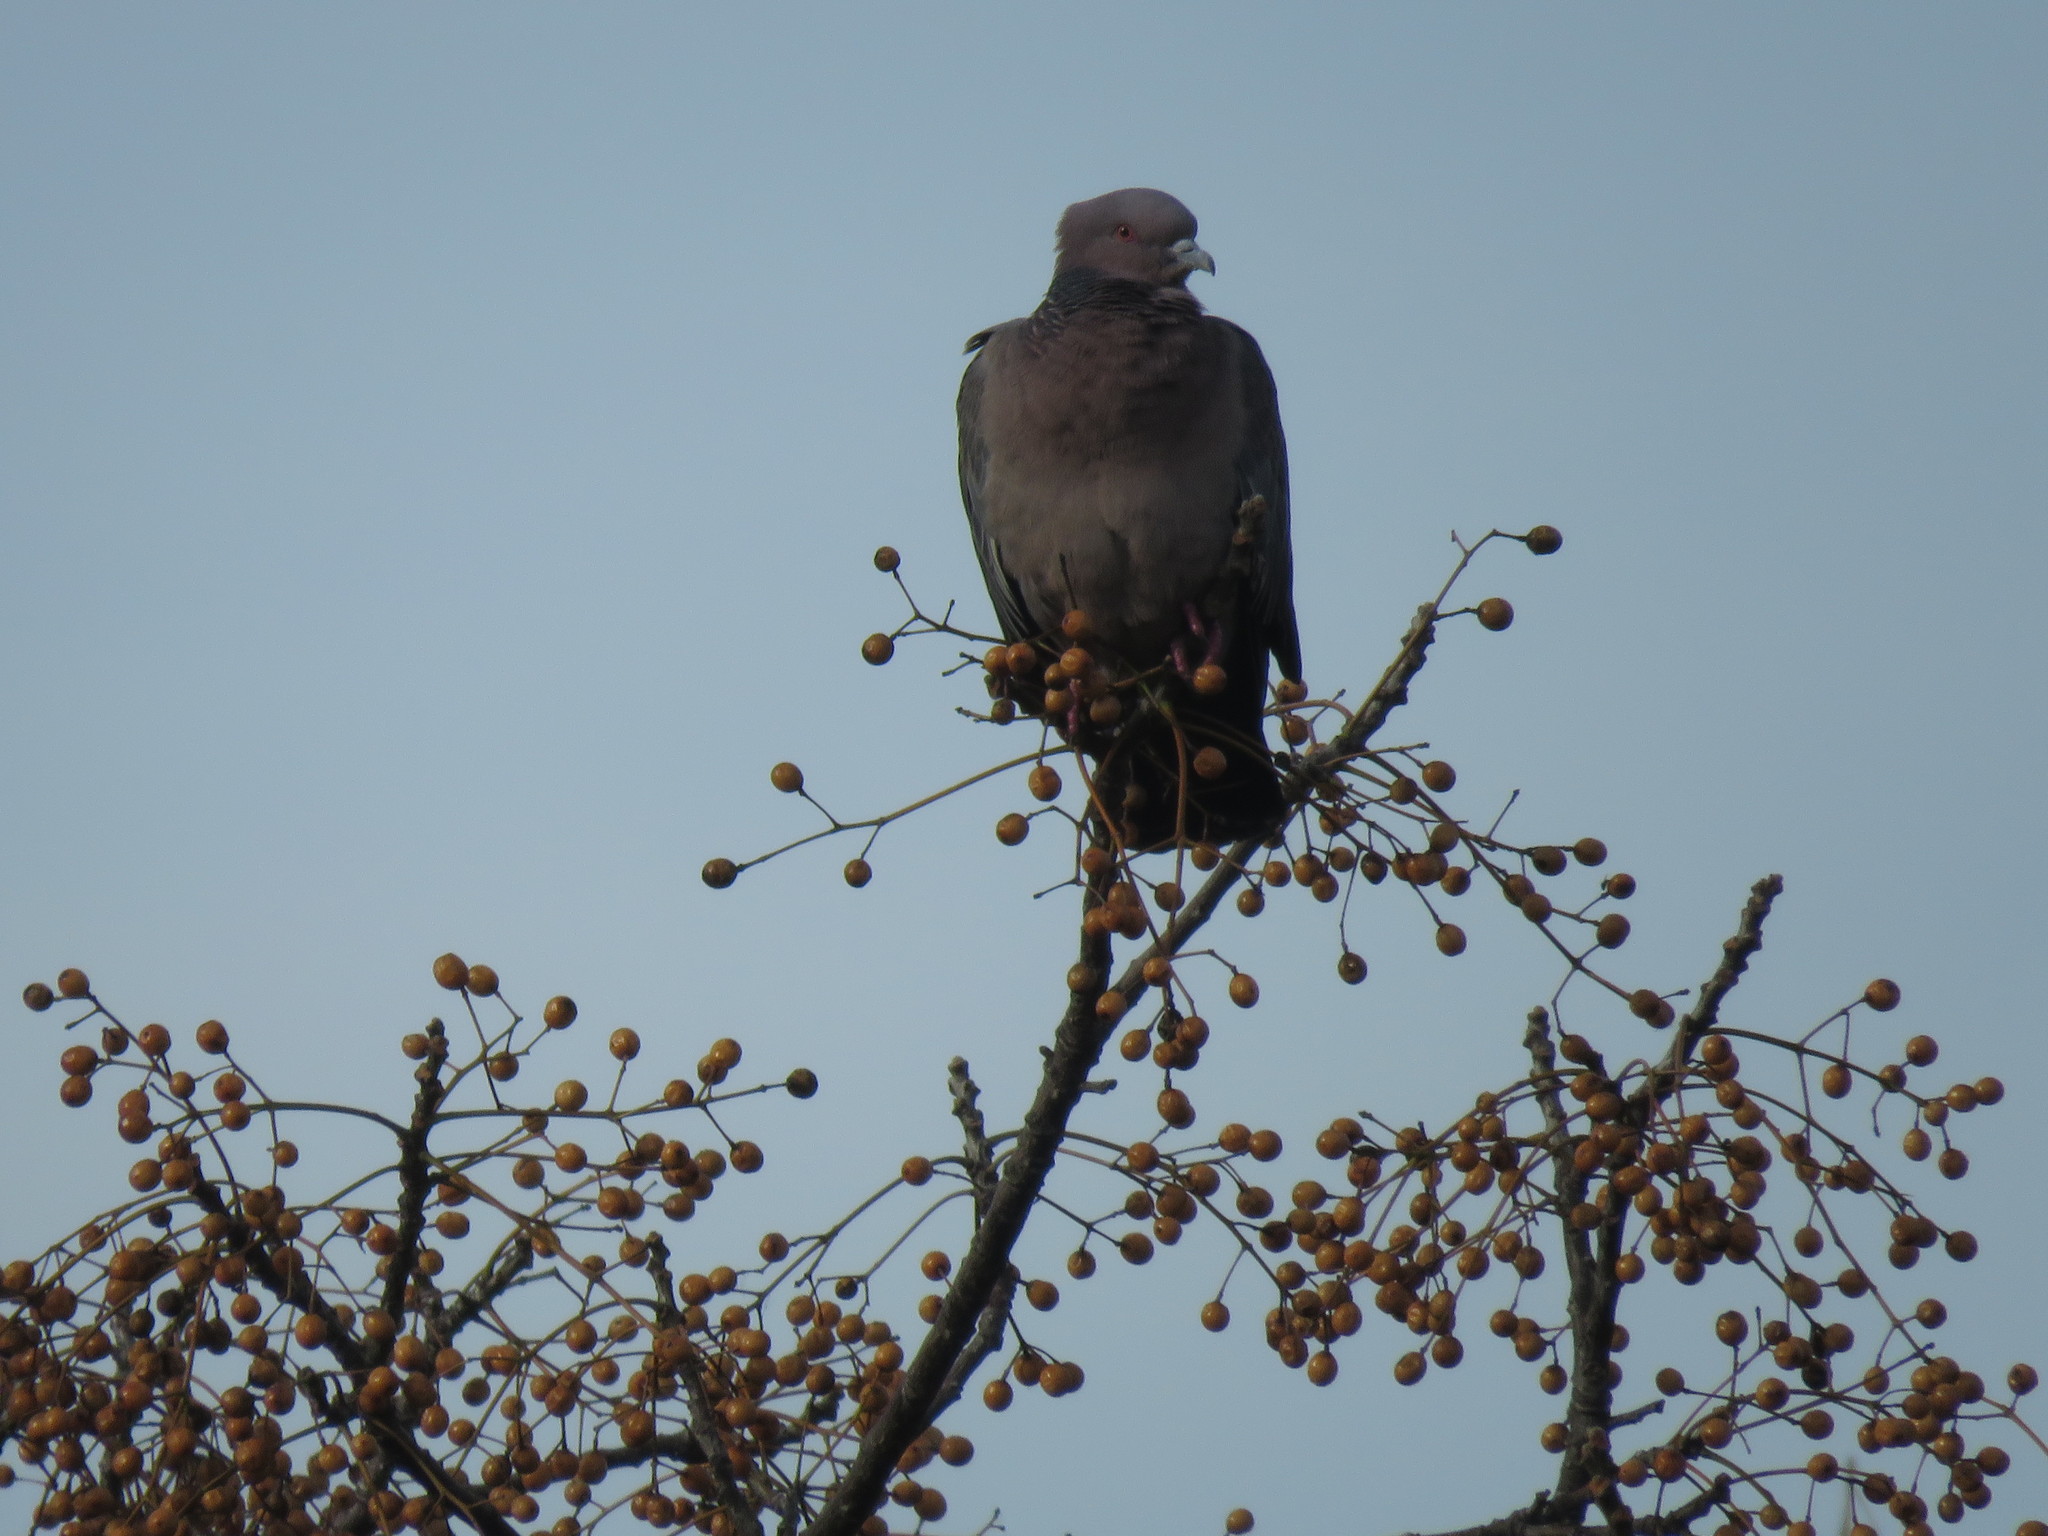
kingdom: Animalia
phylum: Chordata
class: Aves
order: Columbiformes
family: Columbidae
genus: Patagioenas
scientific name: Patagioenas picazuro
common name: Picazuro pigeon
